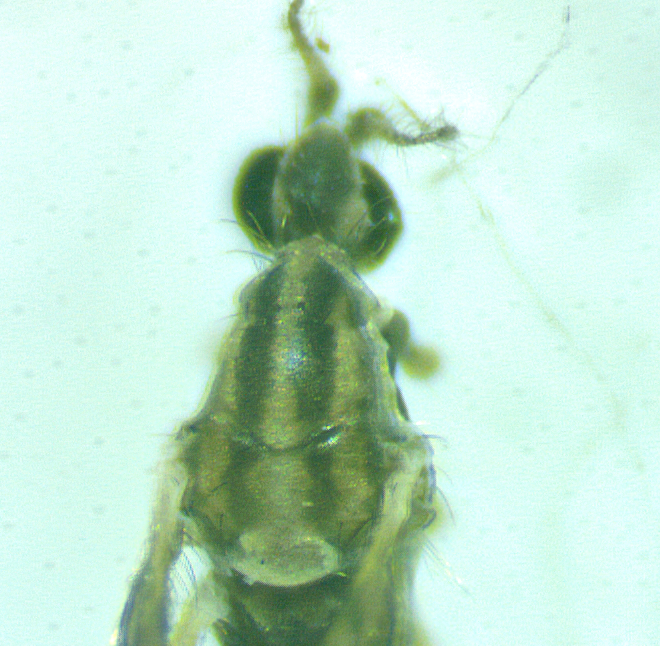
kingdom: Animalia
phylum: Arthropoda
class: Insecta
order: Diptera
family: Limoniidae
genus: Erioptera
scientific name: Erioptera parva
